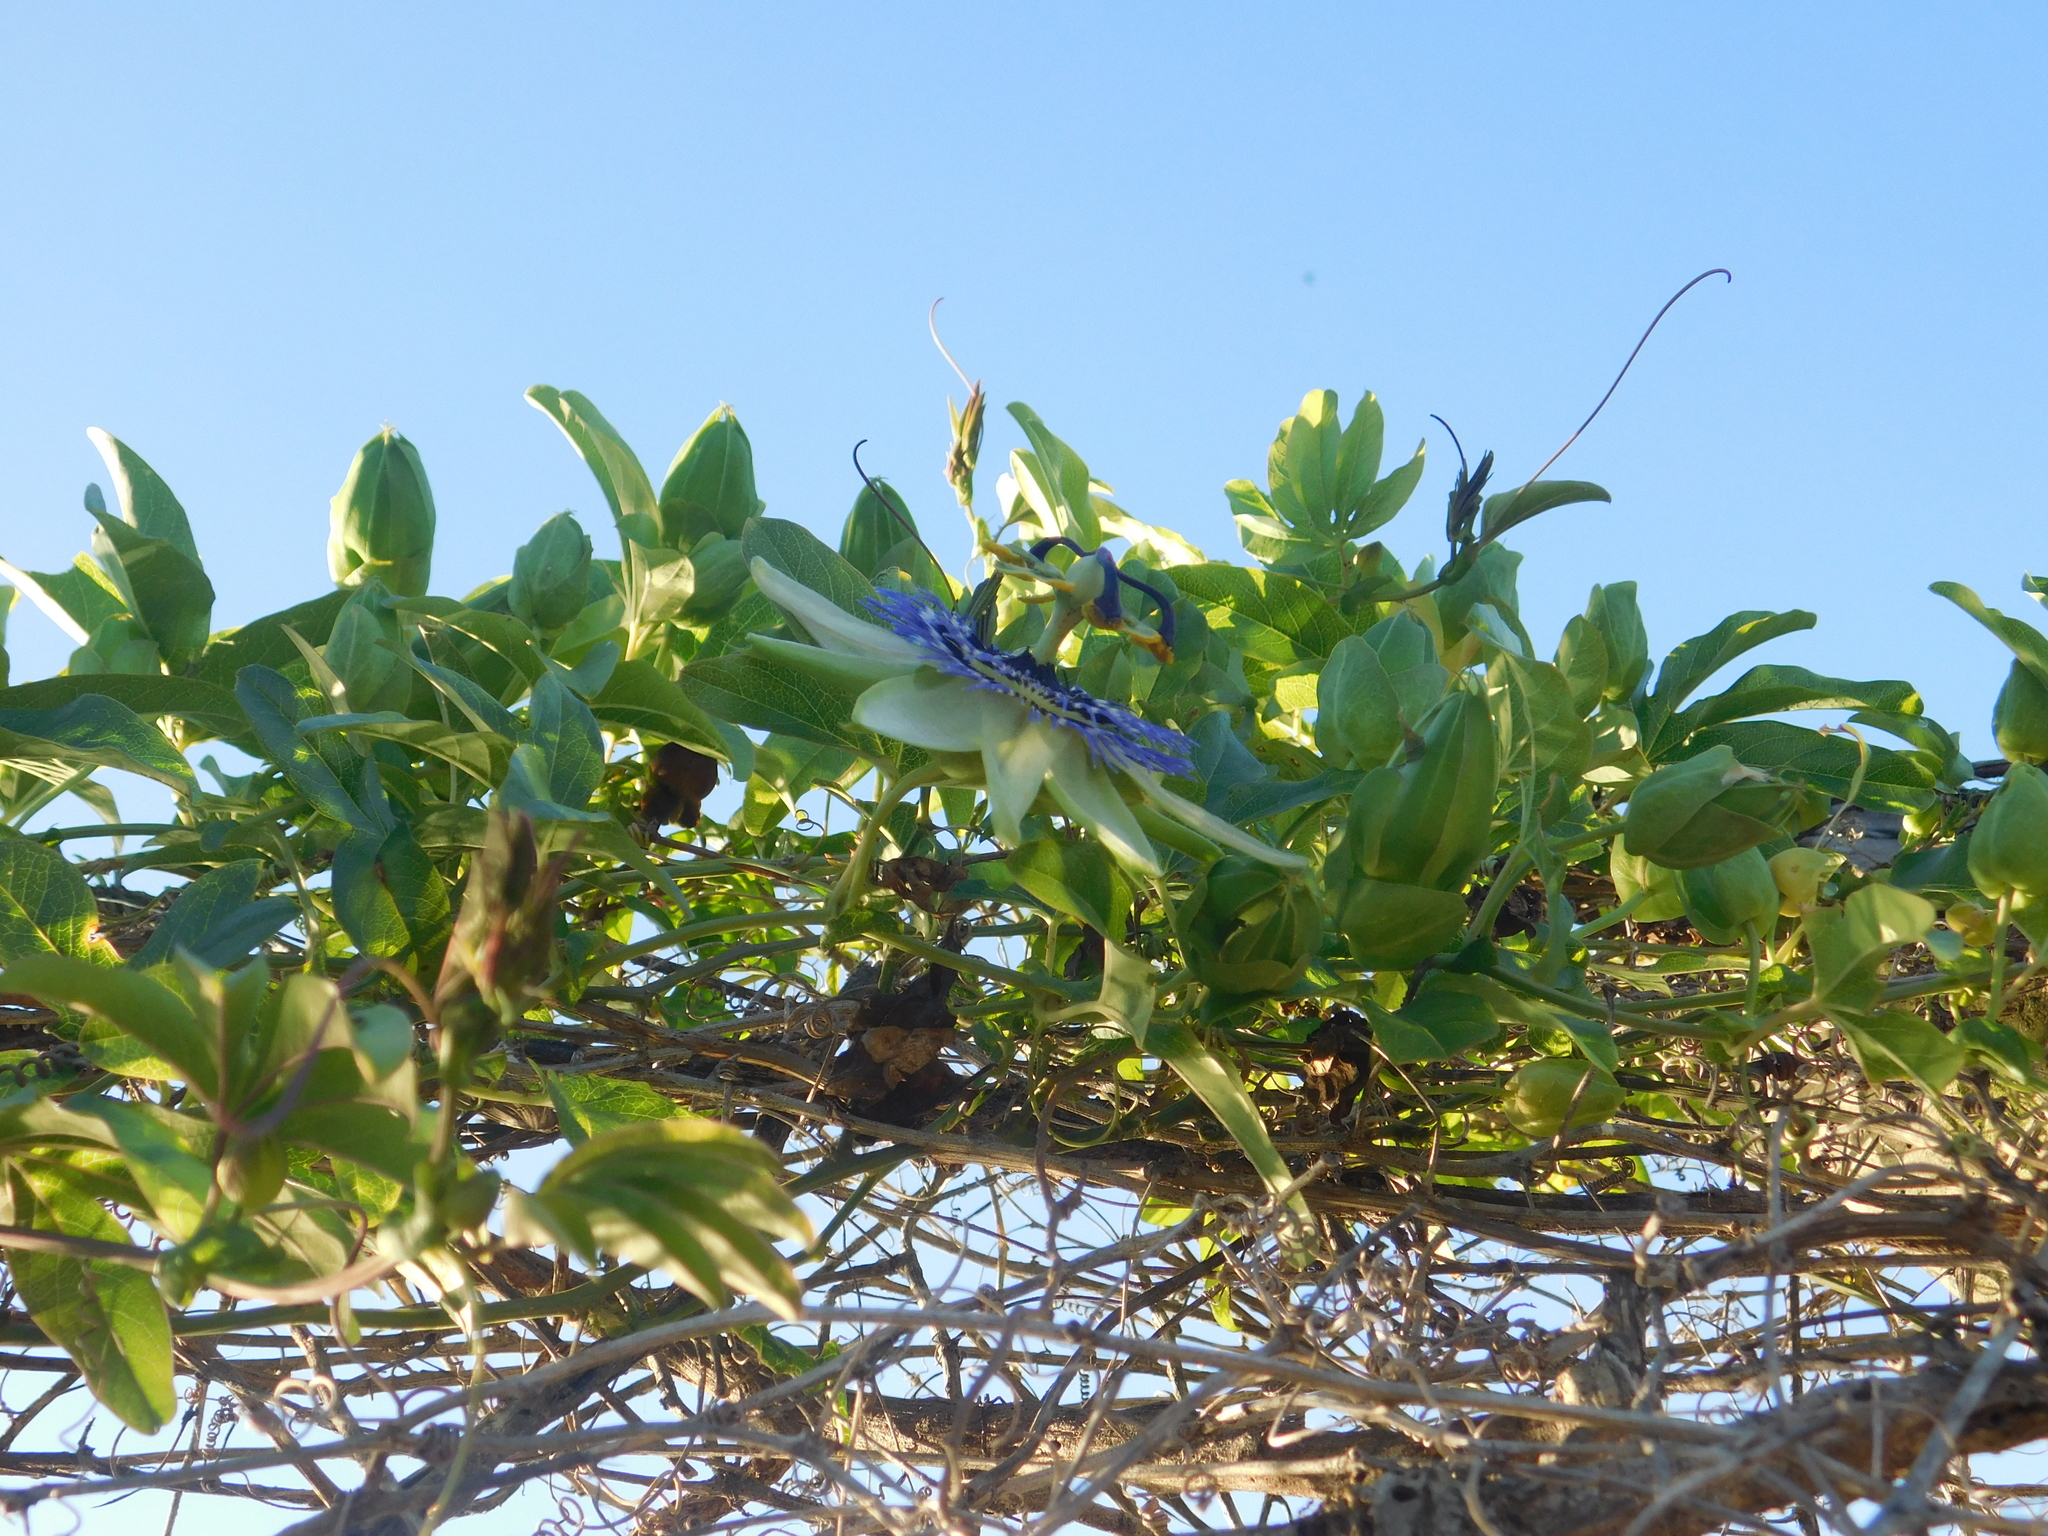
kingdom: Plantae
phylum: Tracheophyta
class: Magnoliopsida
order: Malpighiales
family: Passifloraceae
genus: Passiflora
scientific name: Passiflora caerulea
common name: Blue passionflower
